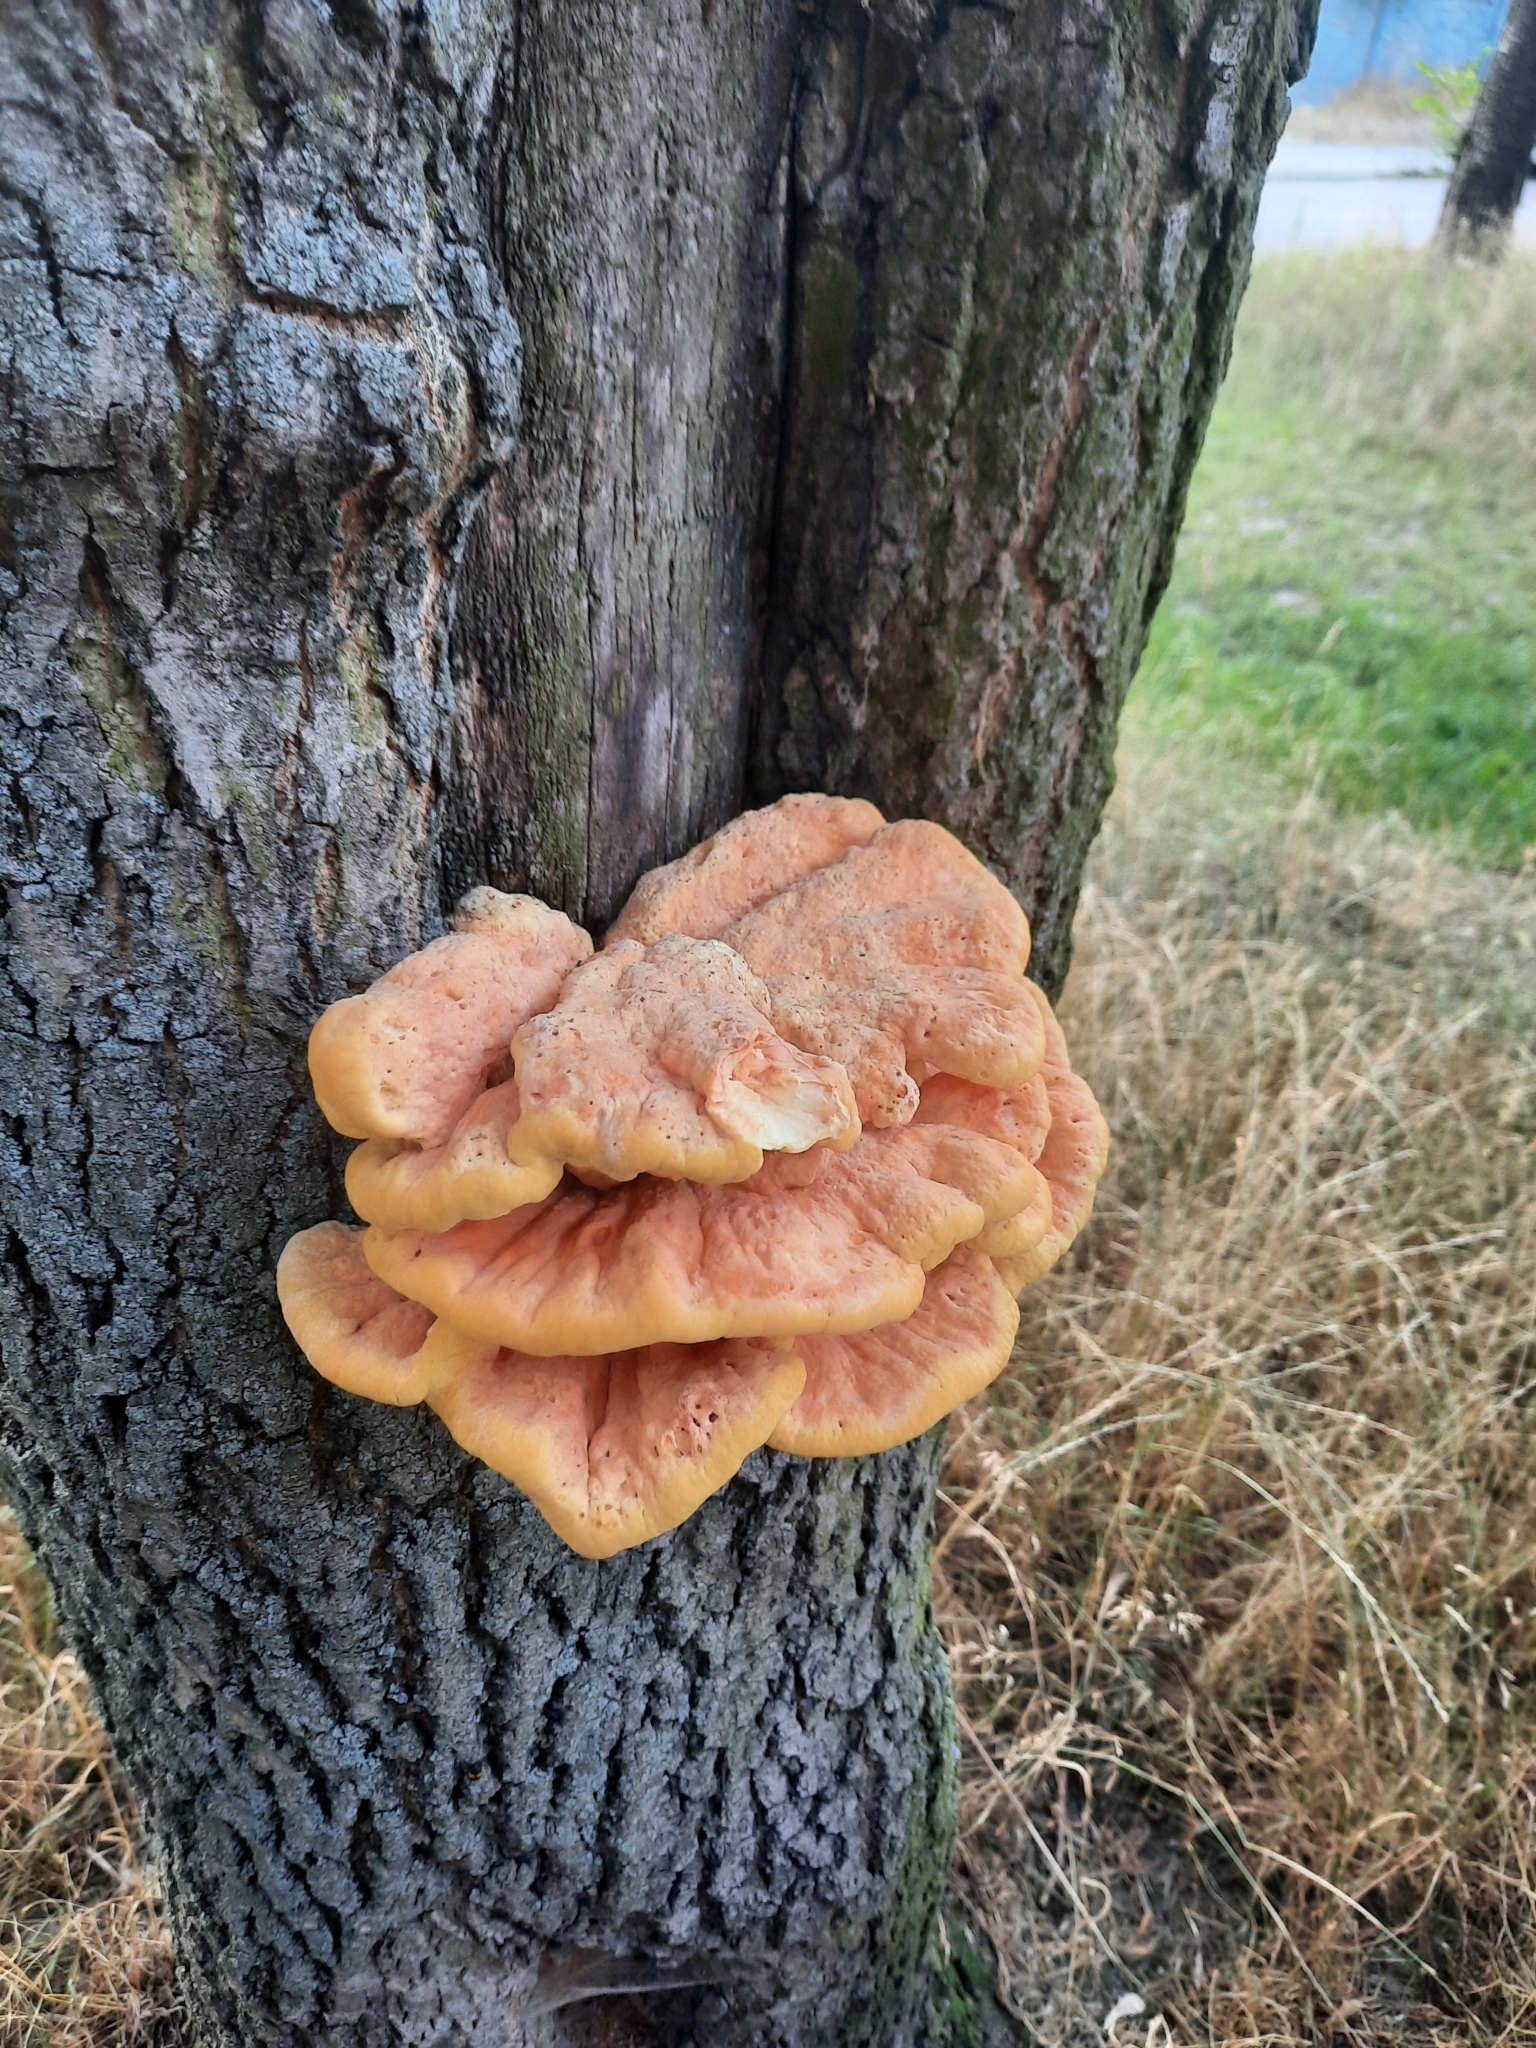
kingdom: Fungi
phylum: Basidiomycota
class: Agaricomycetes
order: Polyporales
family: Laetiporaceae
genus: Laetiporus
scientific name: Laetiporus sulphureus
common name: Chicken of the woods
